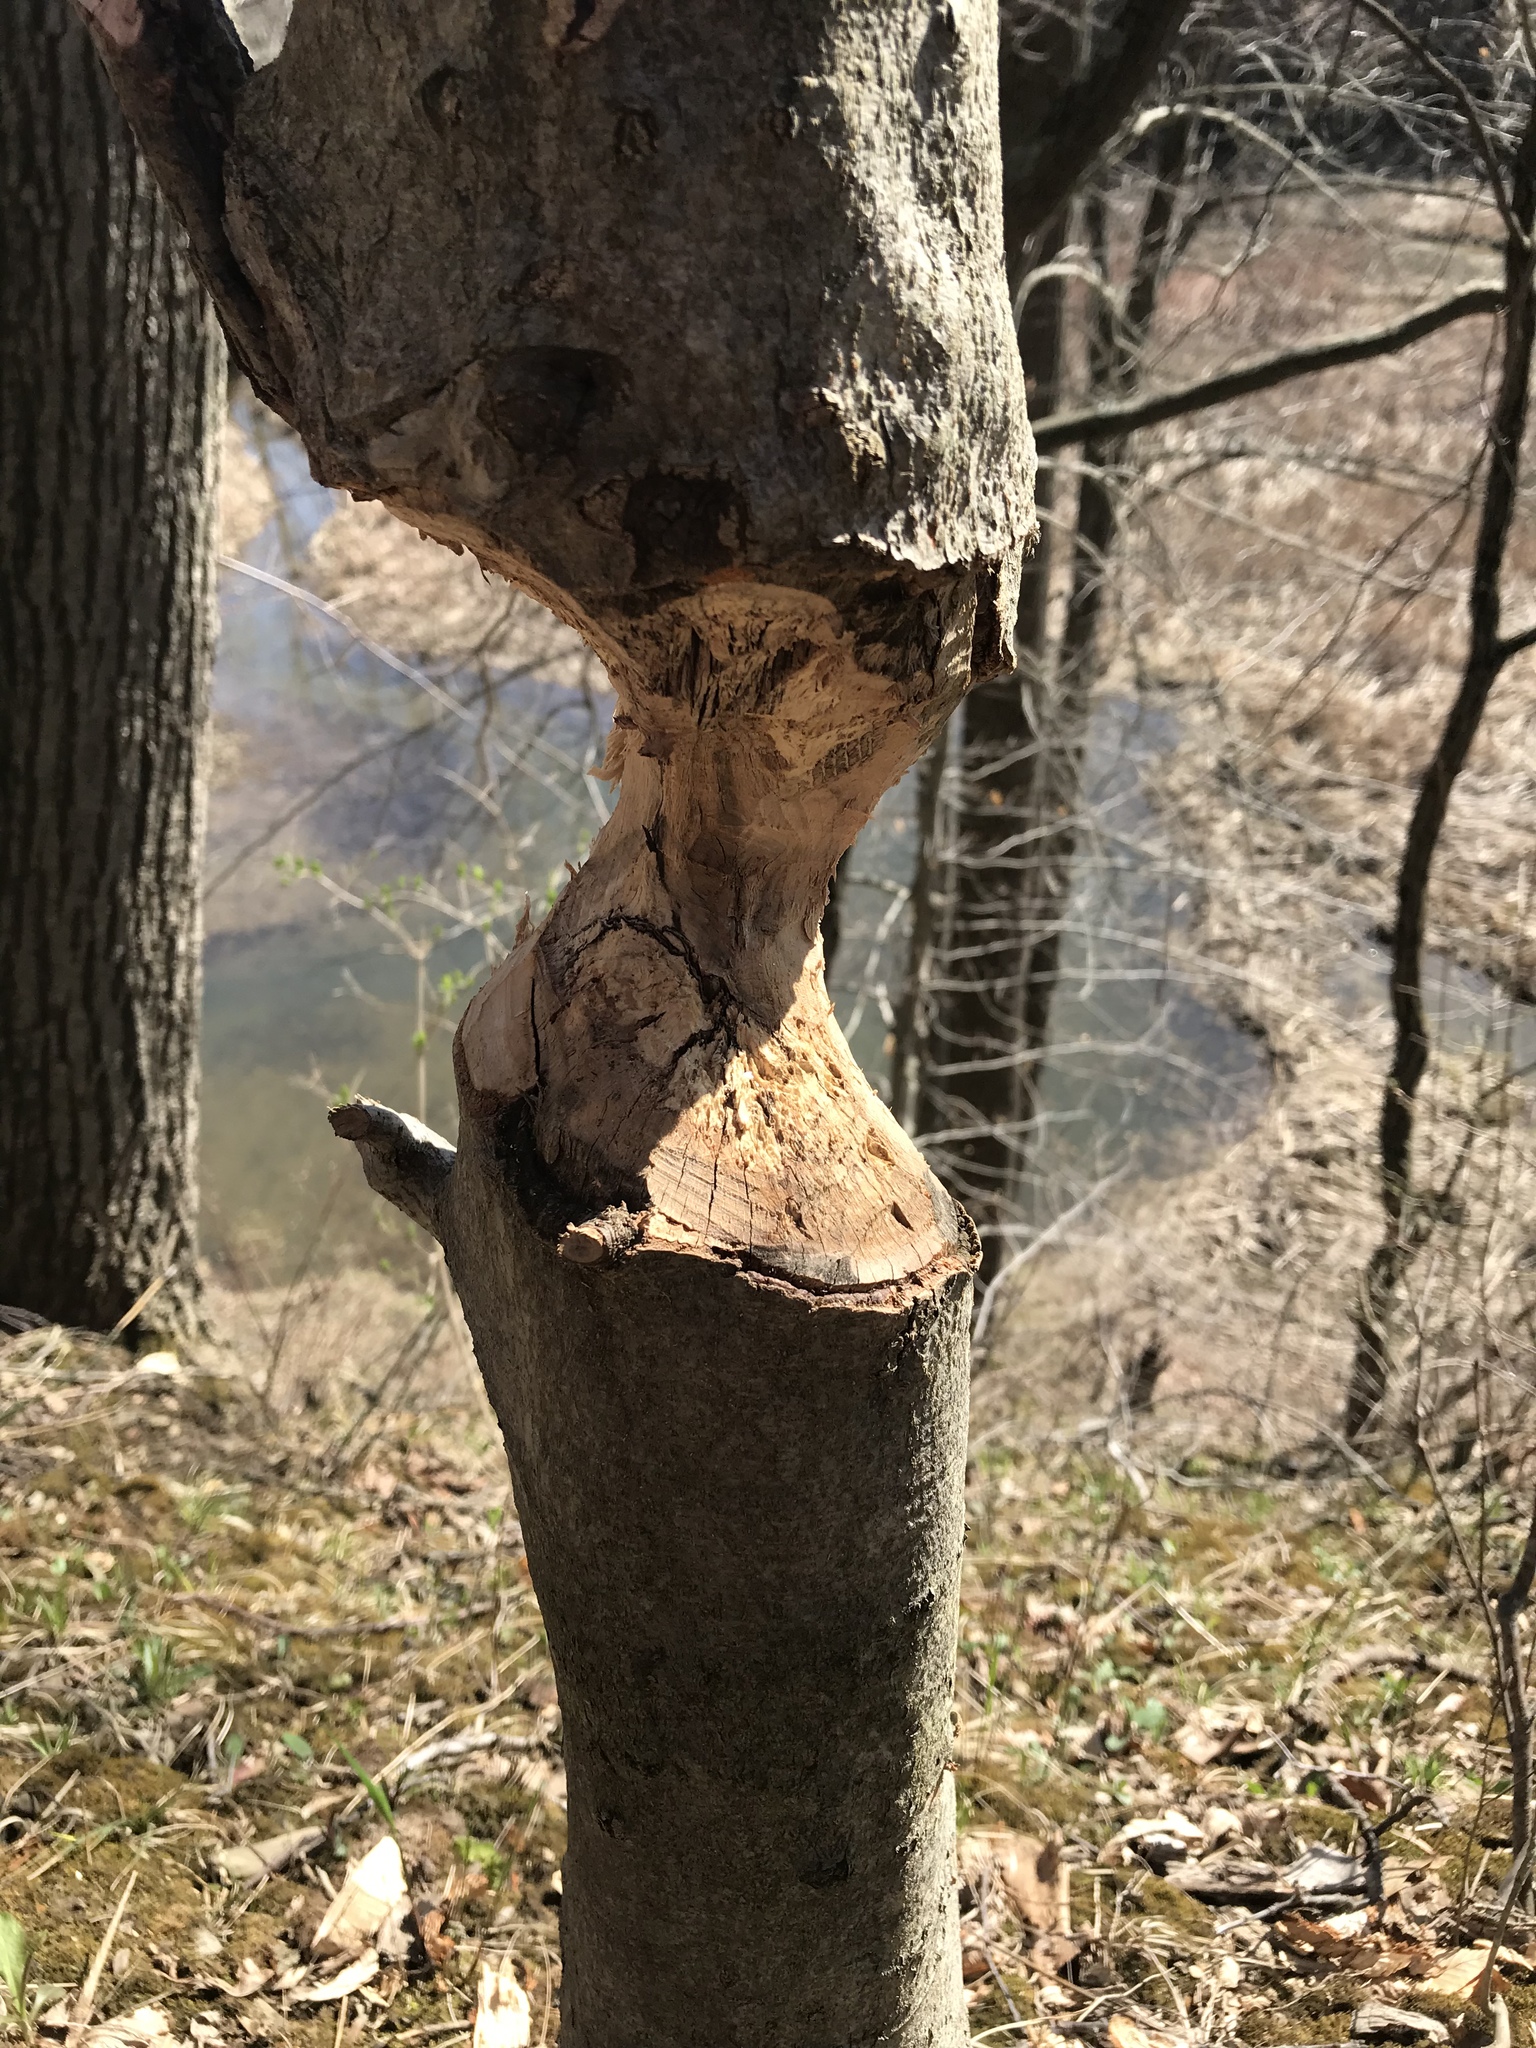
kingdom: Animalia
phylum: Chordata
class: Mammalia
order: Rodentia
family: Castoridae
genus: Castor
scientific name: Castor canadensis
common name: American beaver
